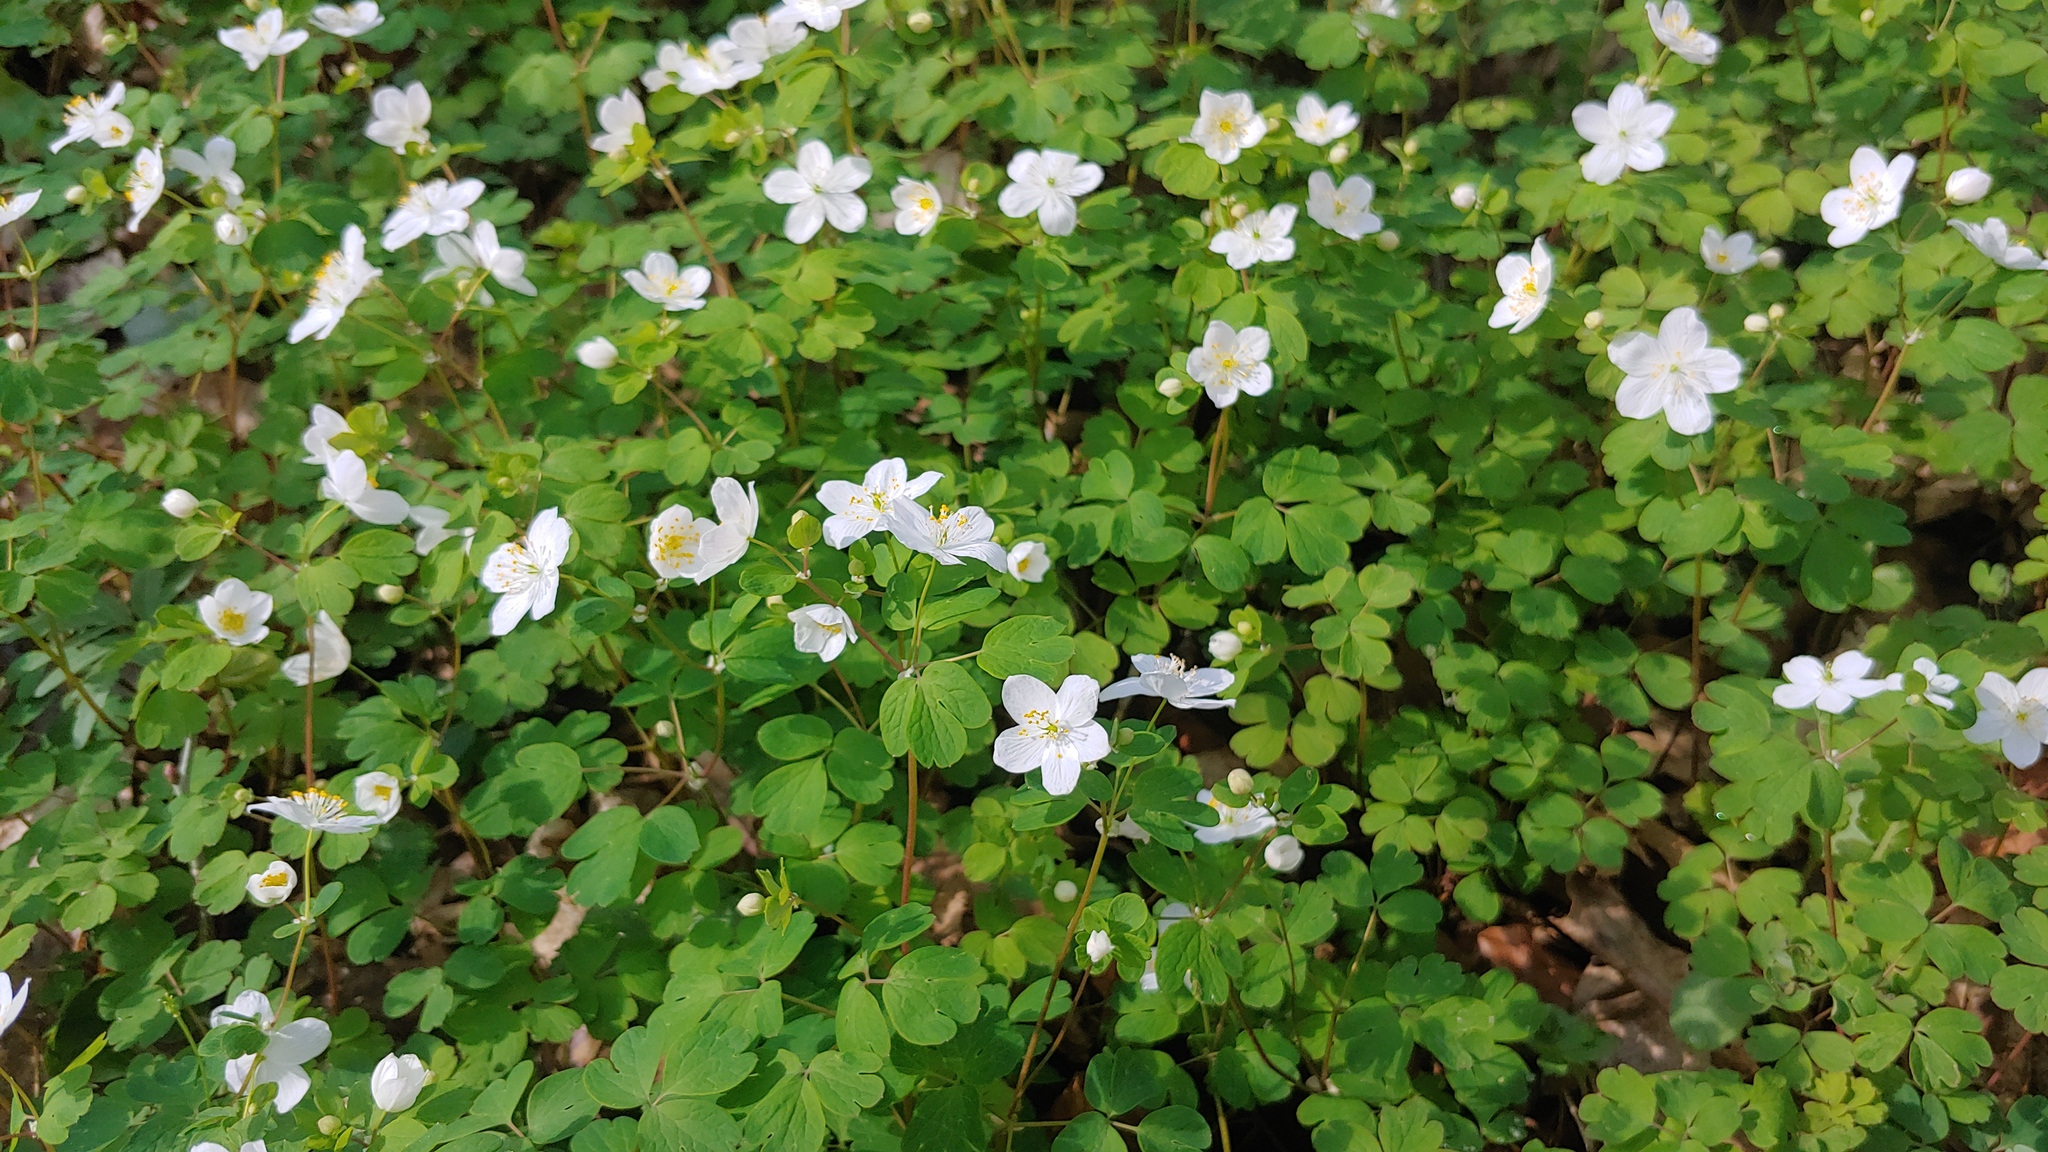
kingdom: Plantae
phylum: Tracheophyta
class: Magnoliopsida
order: Ranunculales
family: Ranunculaceae
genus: Enemion
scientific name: Enemion biternatum
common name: Eastern false rue-anemone
